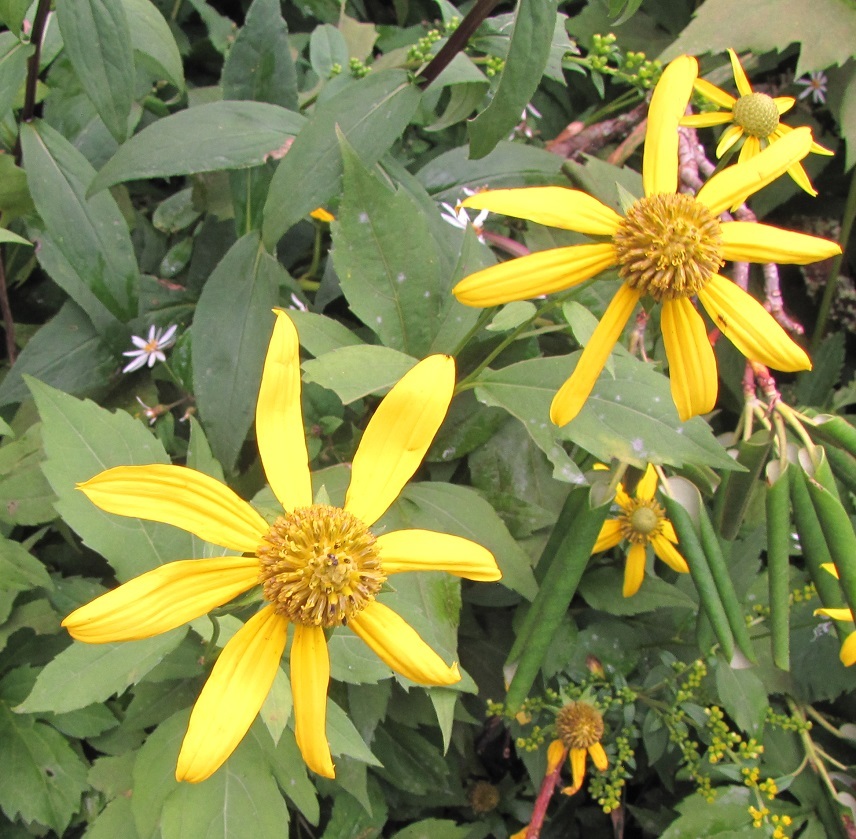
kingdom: Plantae
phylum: Tracheophyta
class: Magnoliopsida
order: Asterales
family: Asteraceae
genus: Rudbeckia
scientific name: Rudbeckia laciniata
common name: Coneflower
